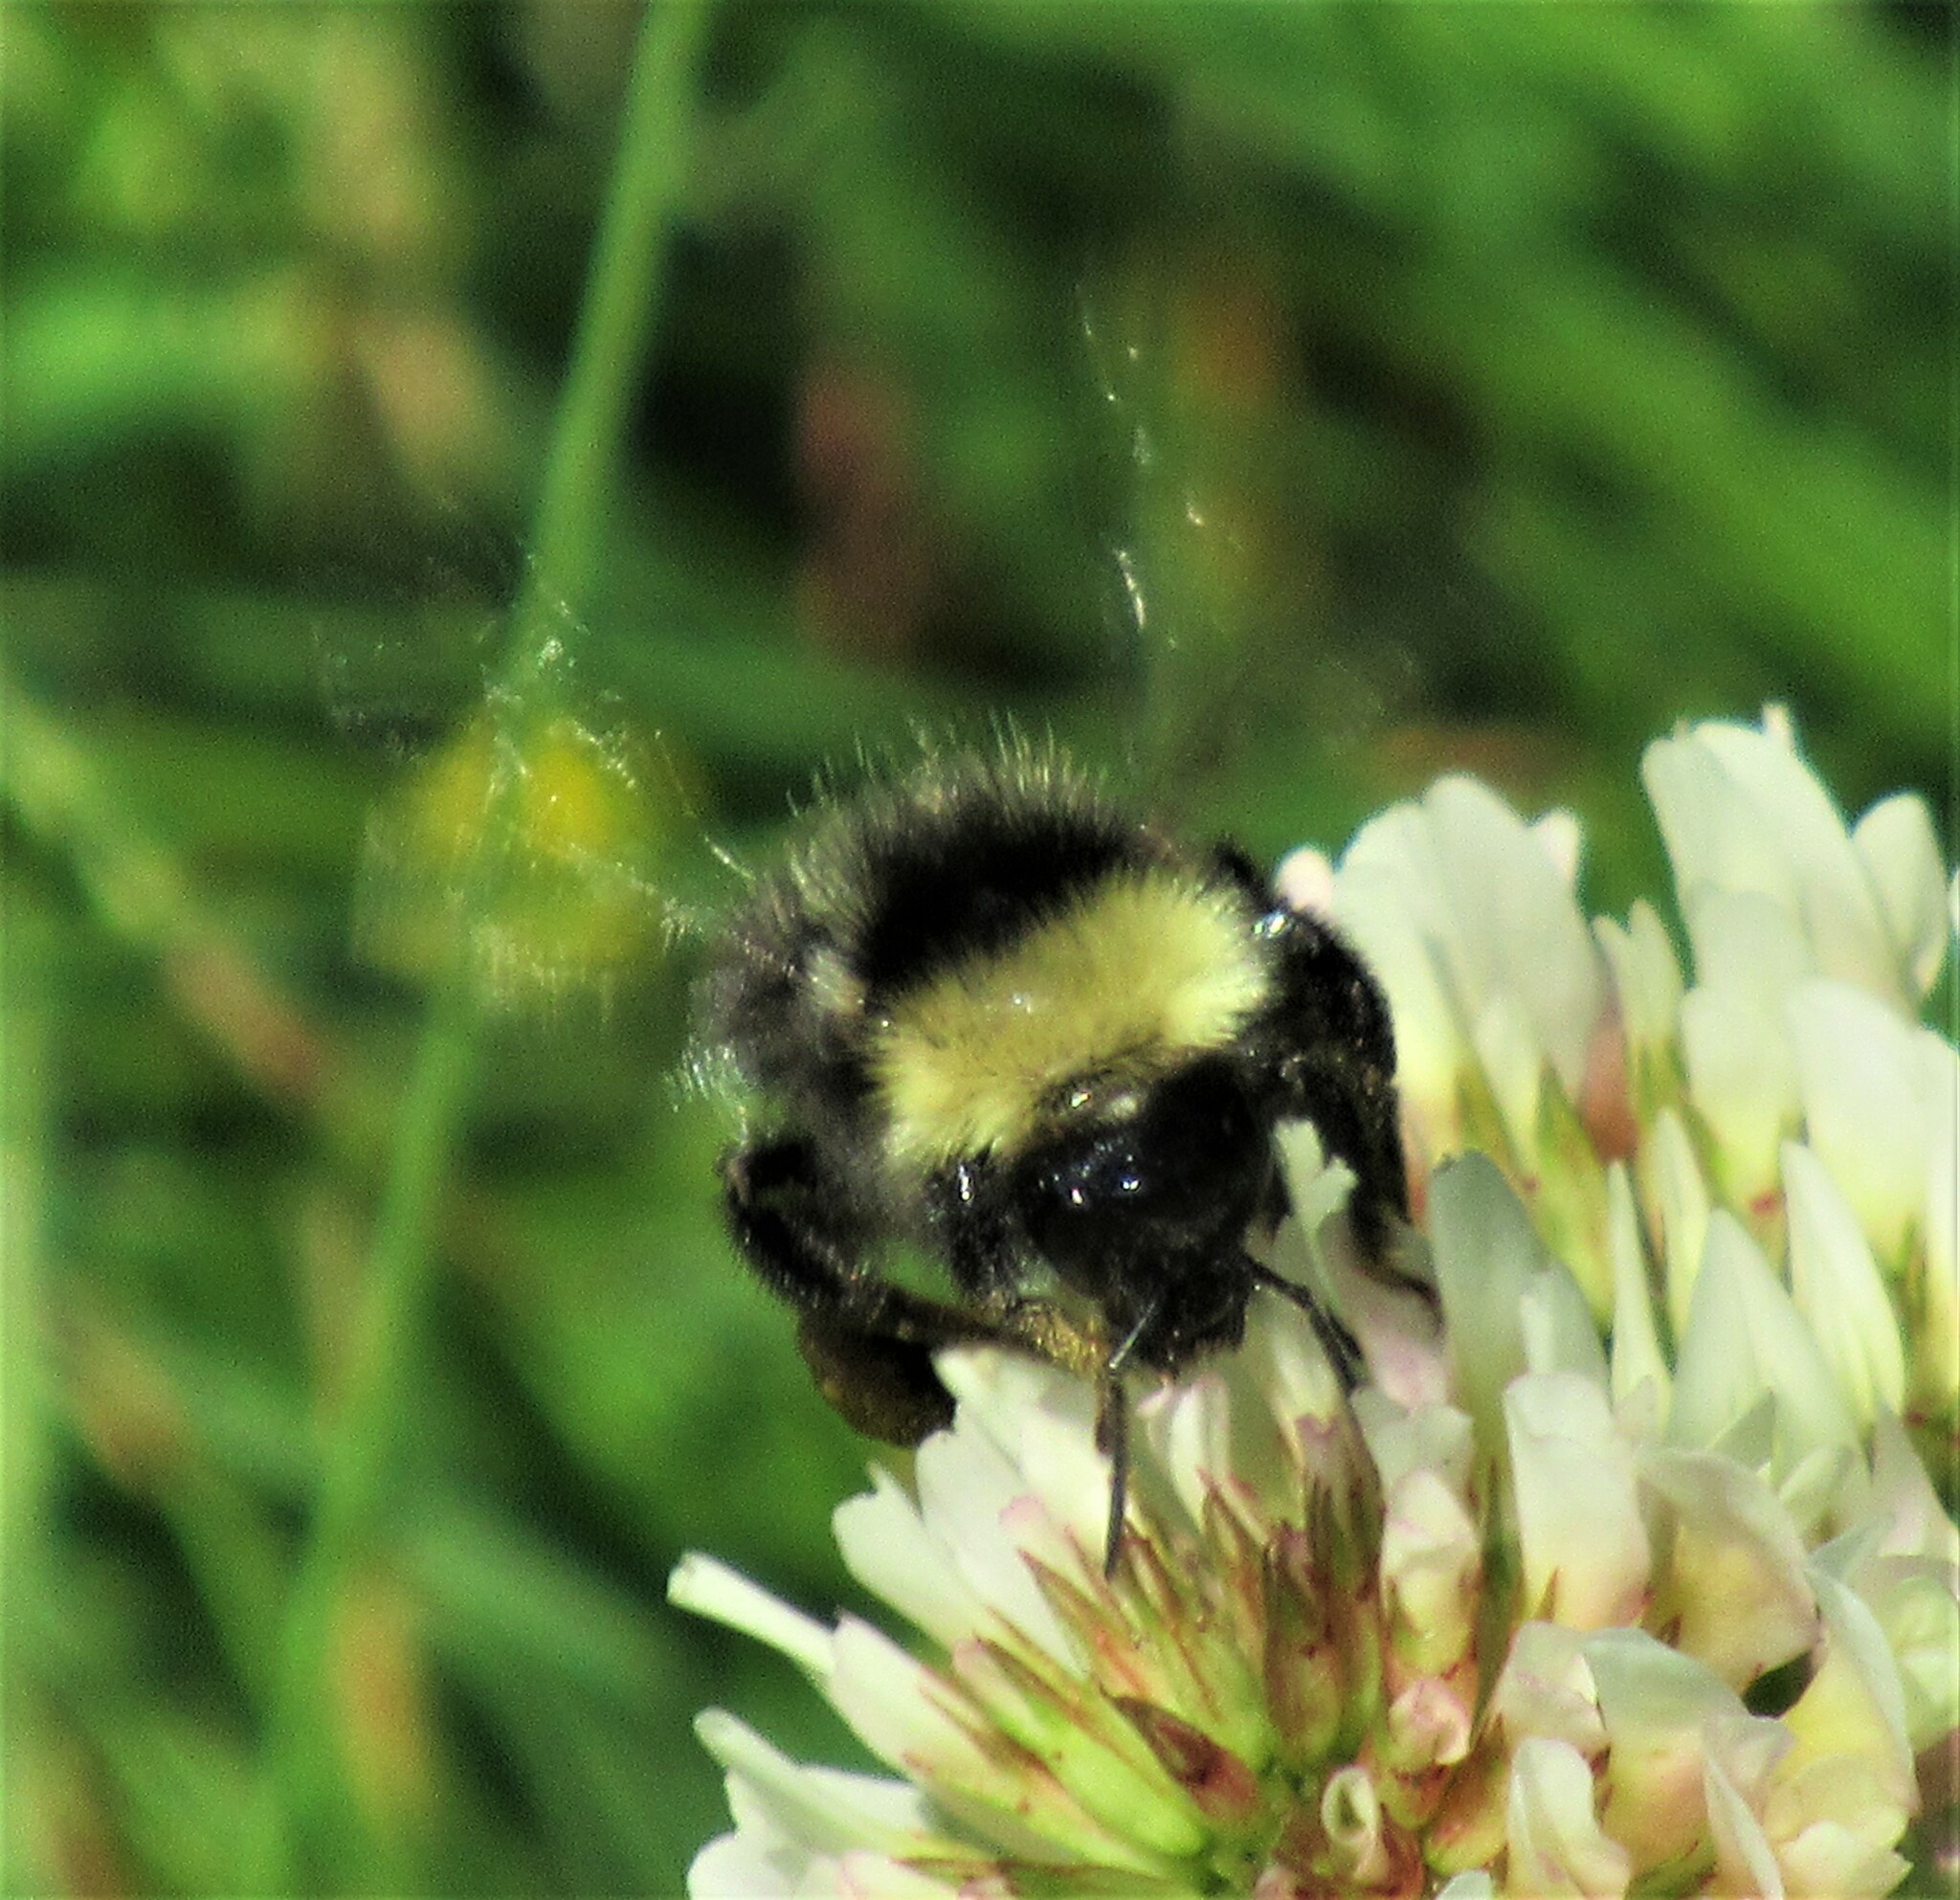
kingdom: Animalia
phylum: Arthropoda
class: Insecta
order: Hymenoptera
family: Apidae
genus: Bombus
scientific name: Bombus californicus
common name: California bumble bee
